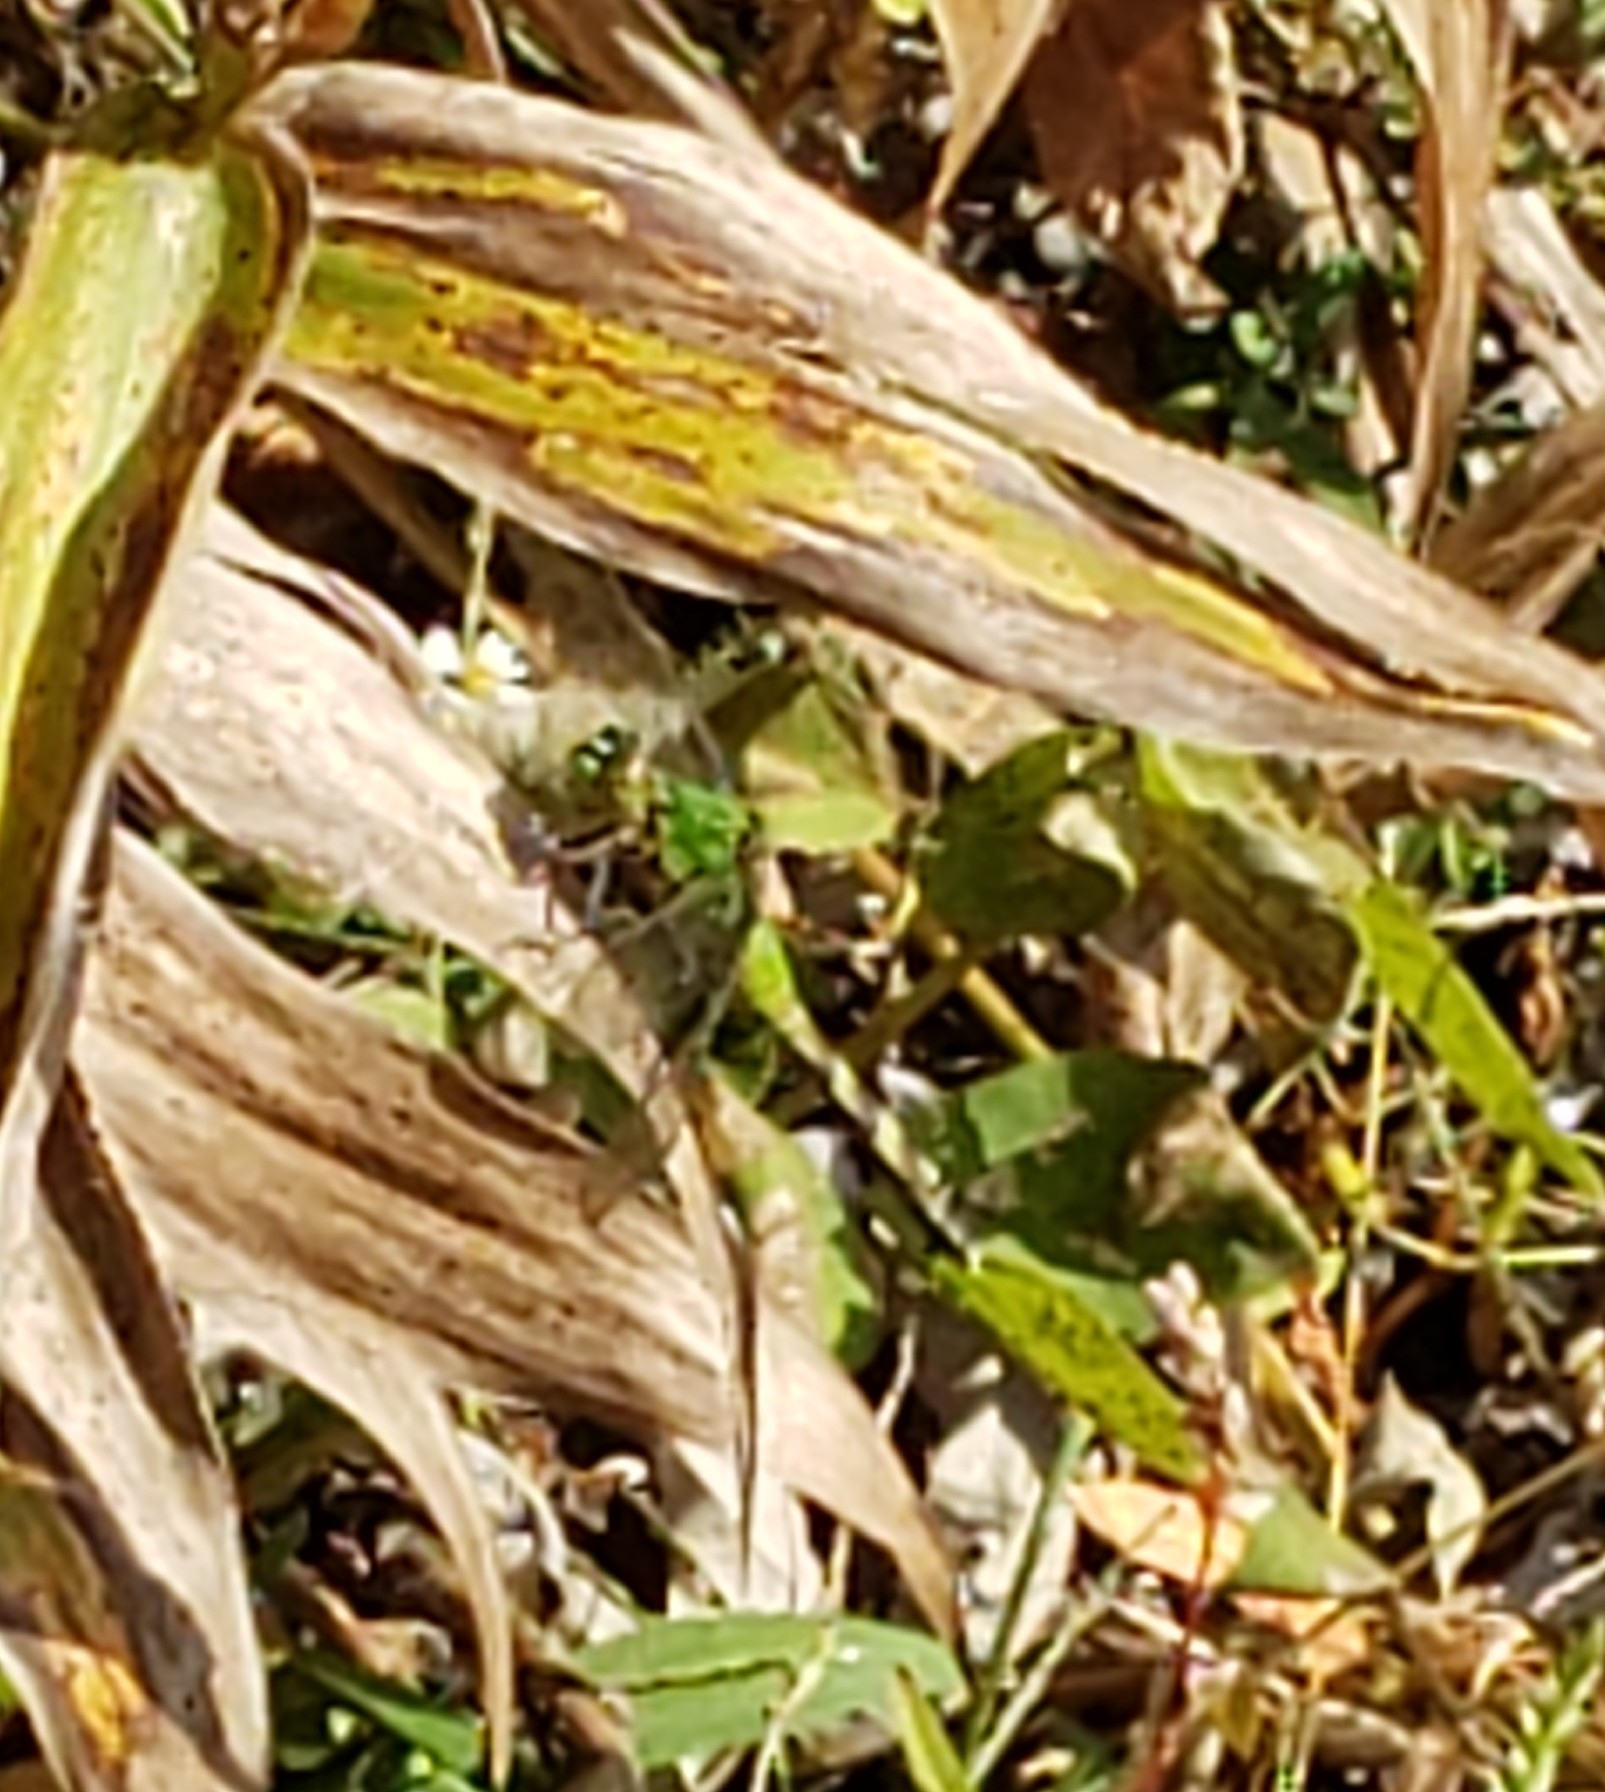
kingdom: Animalia
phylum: Arthropoda
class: Insecta
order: Odonata
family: Libellulidae
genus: Erythemis
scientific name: Erythemis simplicicollis
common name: Eastern pondhawk
